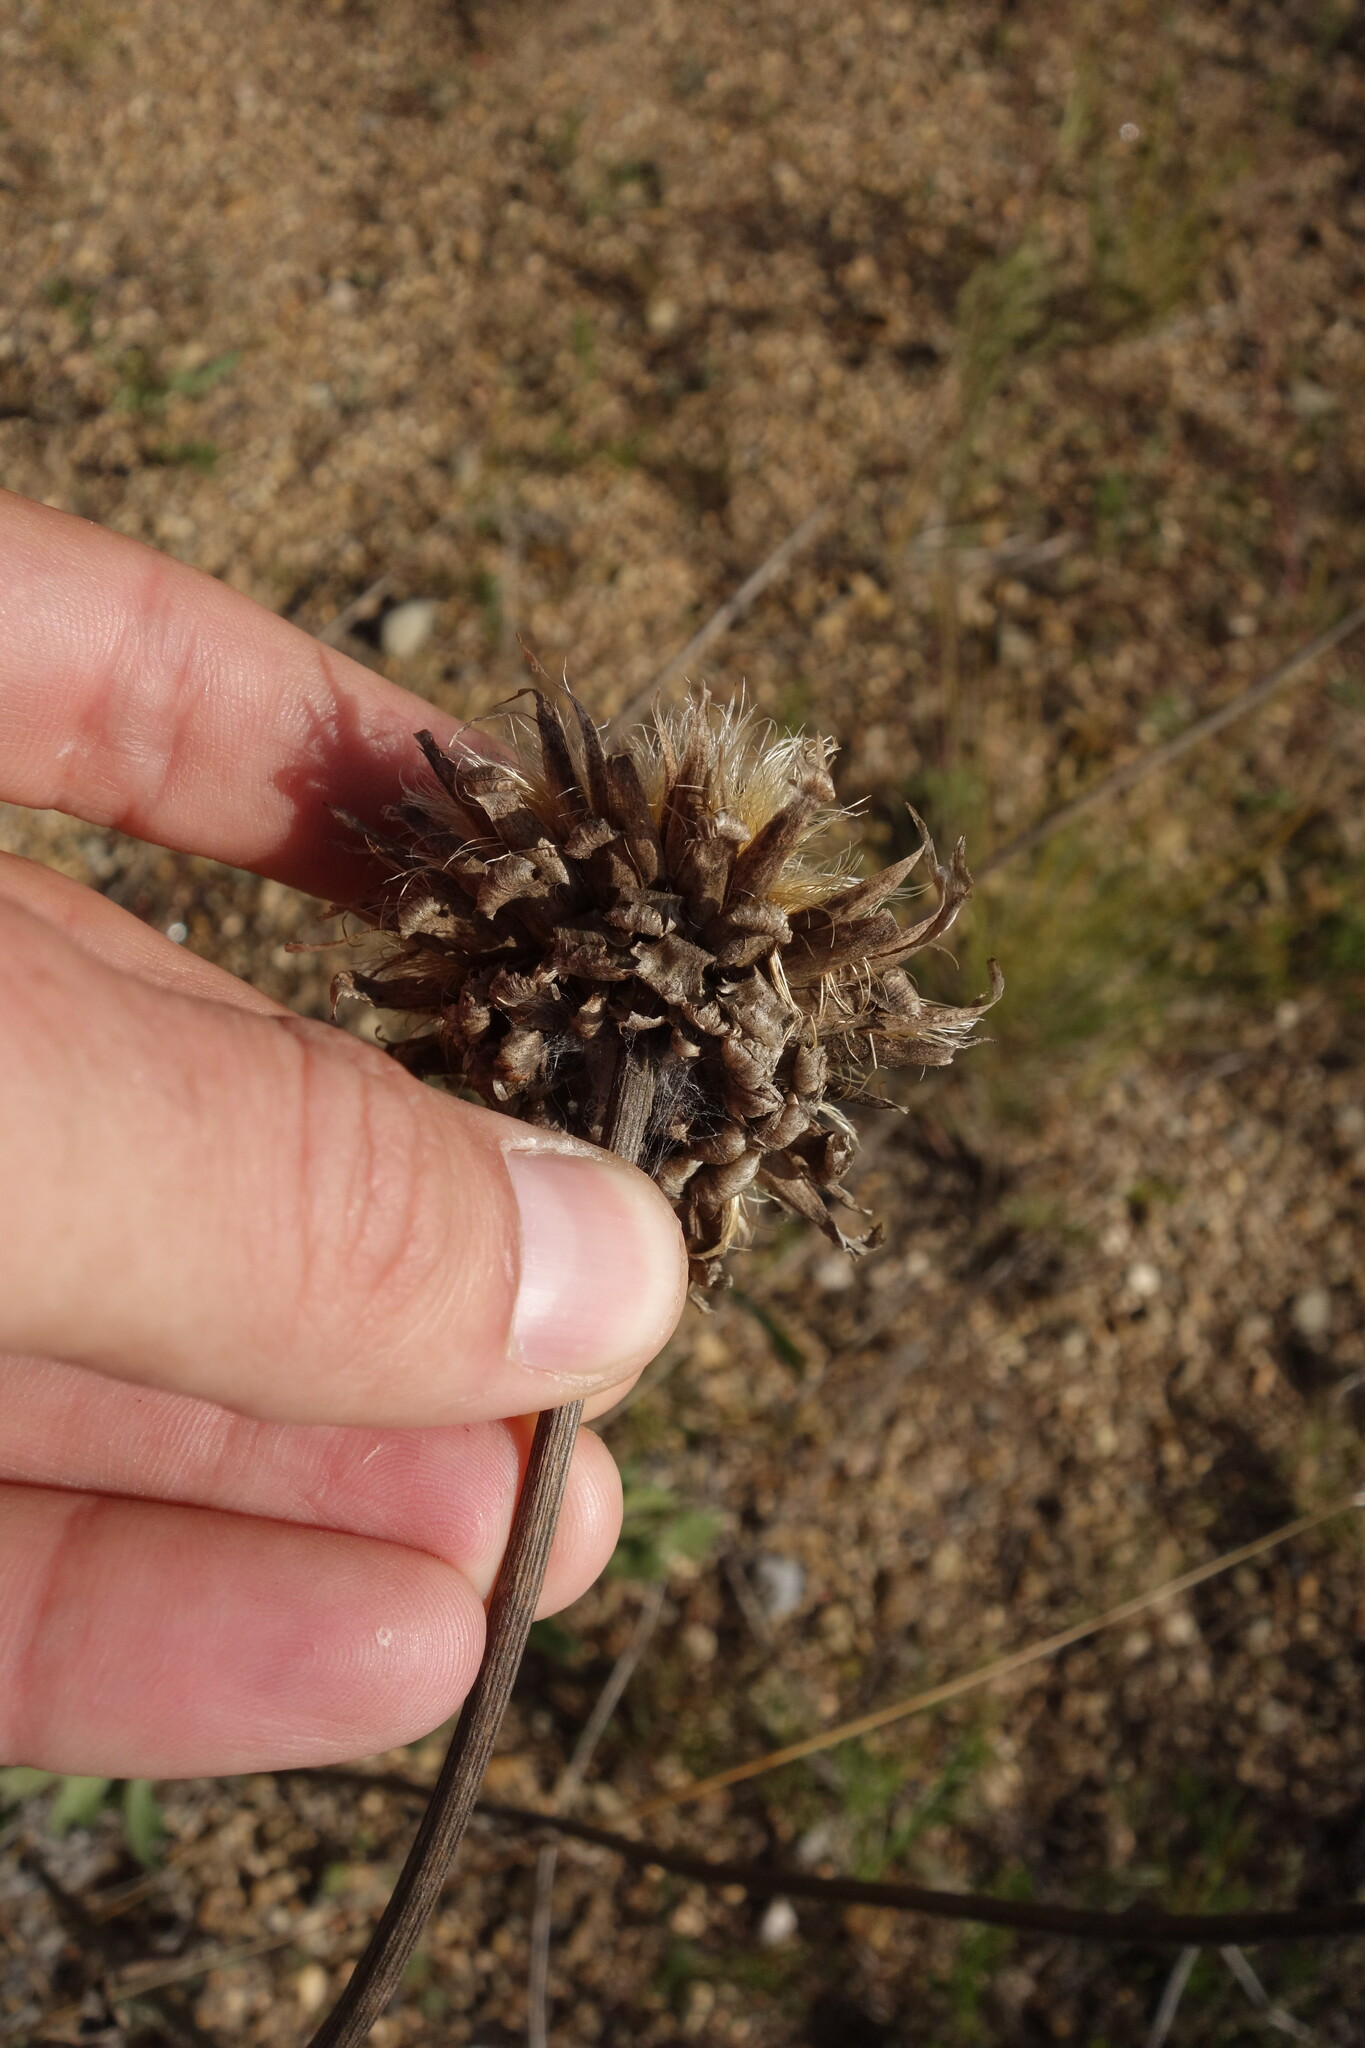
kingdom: Plantae
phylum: Tracheophyta
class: Magnoliopsida
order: Asterales
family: Asteraceae
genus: Leuzea
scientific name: Leuzea uniflora
